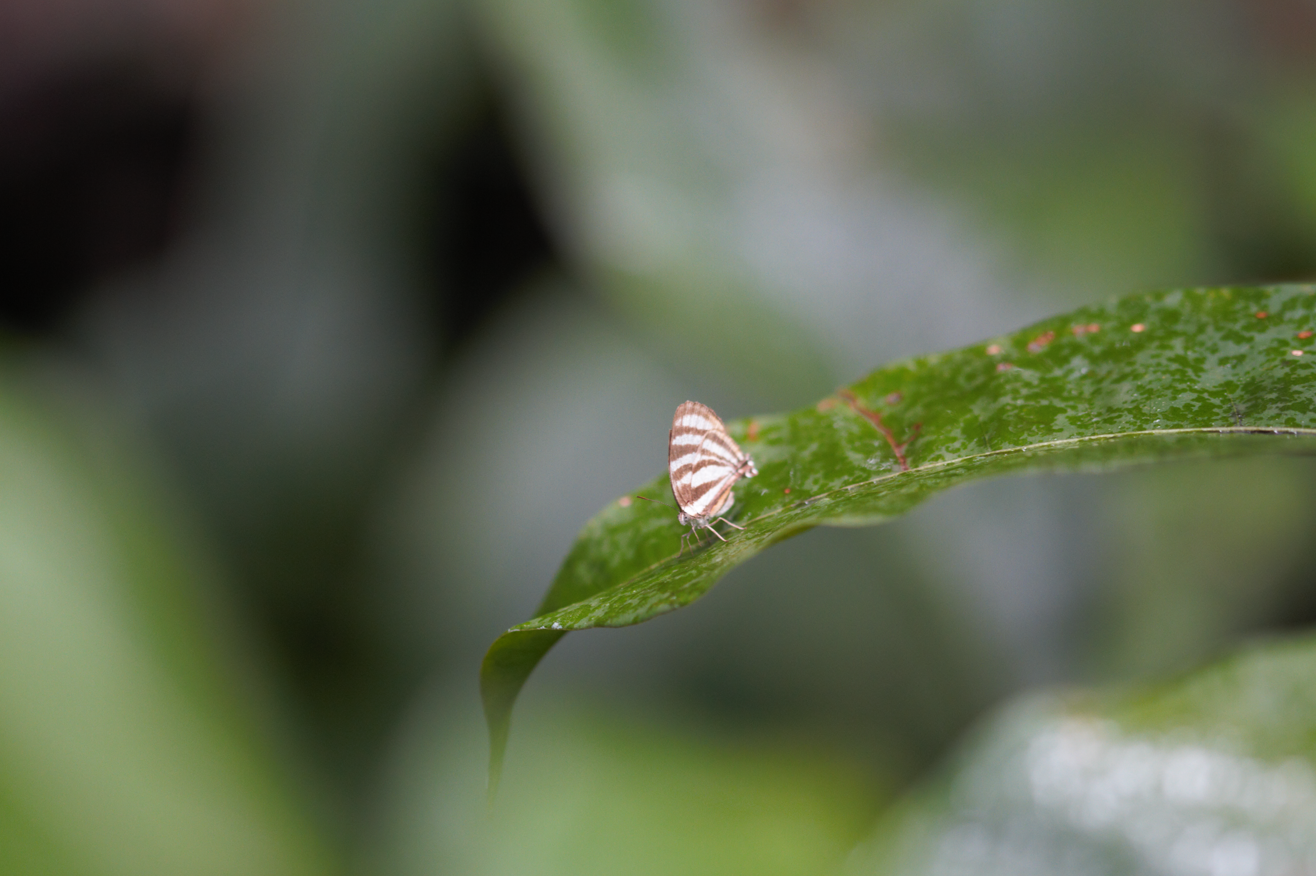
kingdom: Animalia
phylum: Arthropoda
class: Insecta
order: Lepidoptera
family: Lycaenidae
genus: Thecla
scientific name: Thecla aetolus
